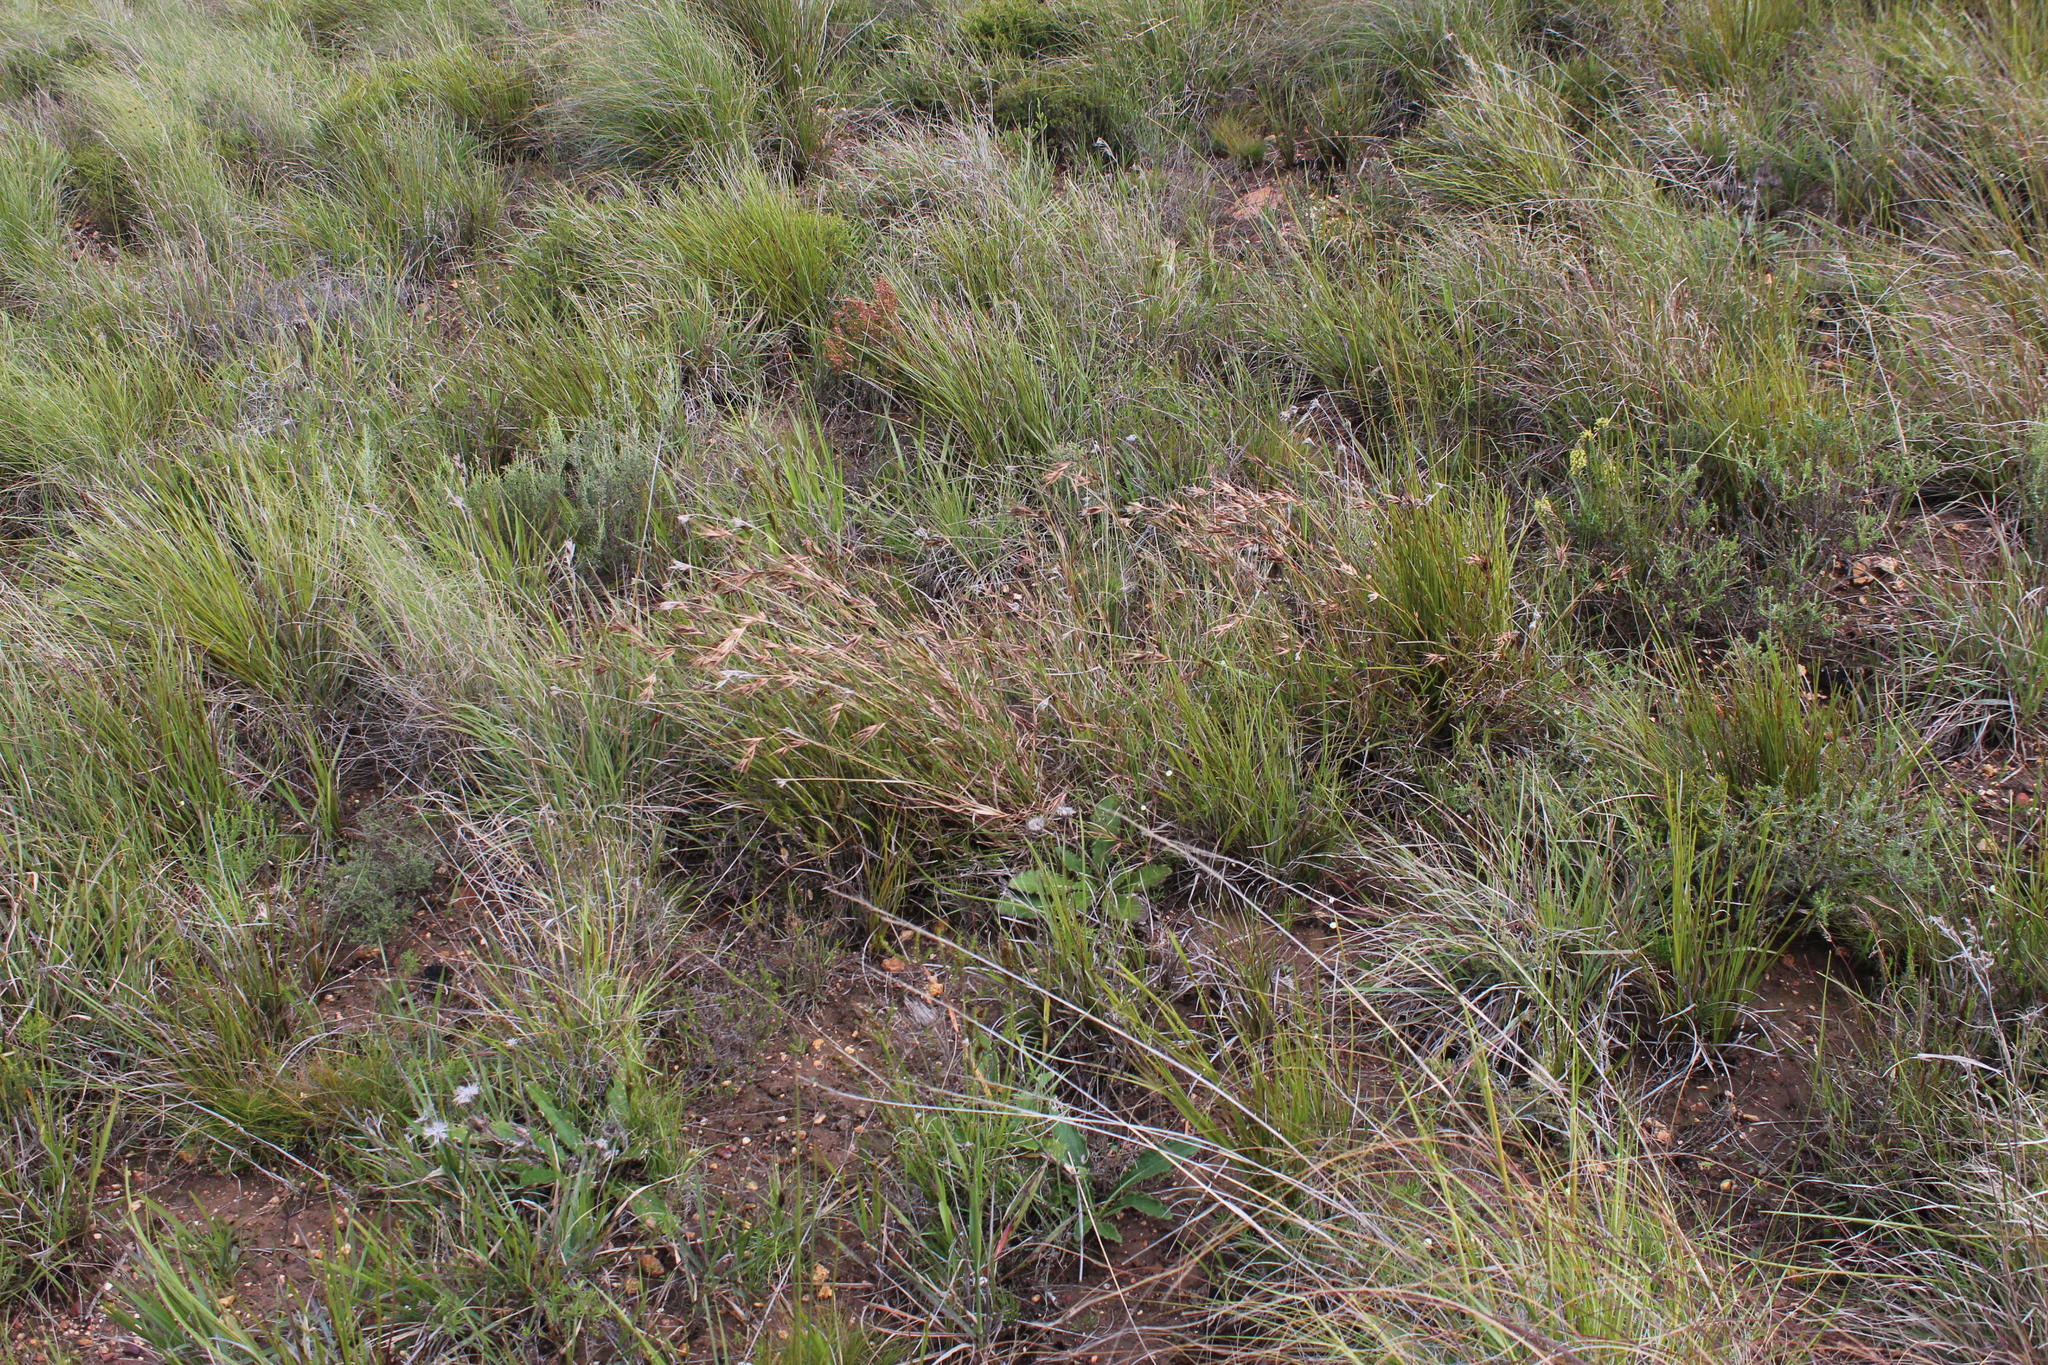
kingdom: Plantae
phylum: Tracheophyta
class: Liliopsida
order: Poales
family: Poaceae
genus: Themeda
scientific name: Themeda triandra
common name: Kangaroo grass
